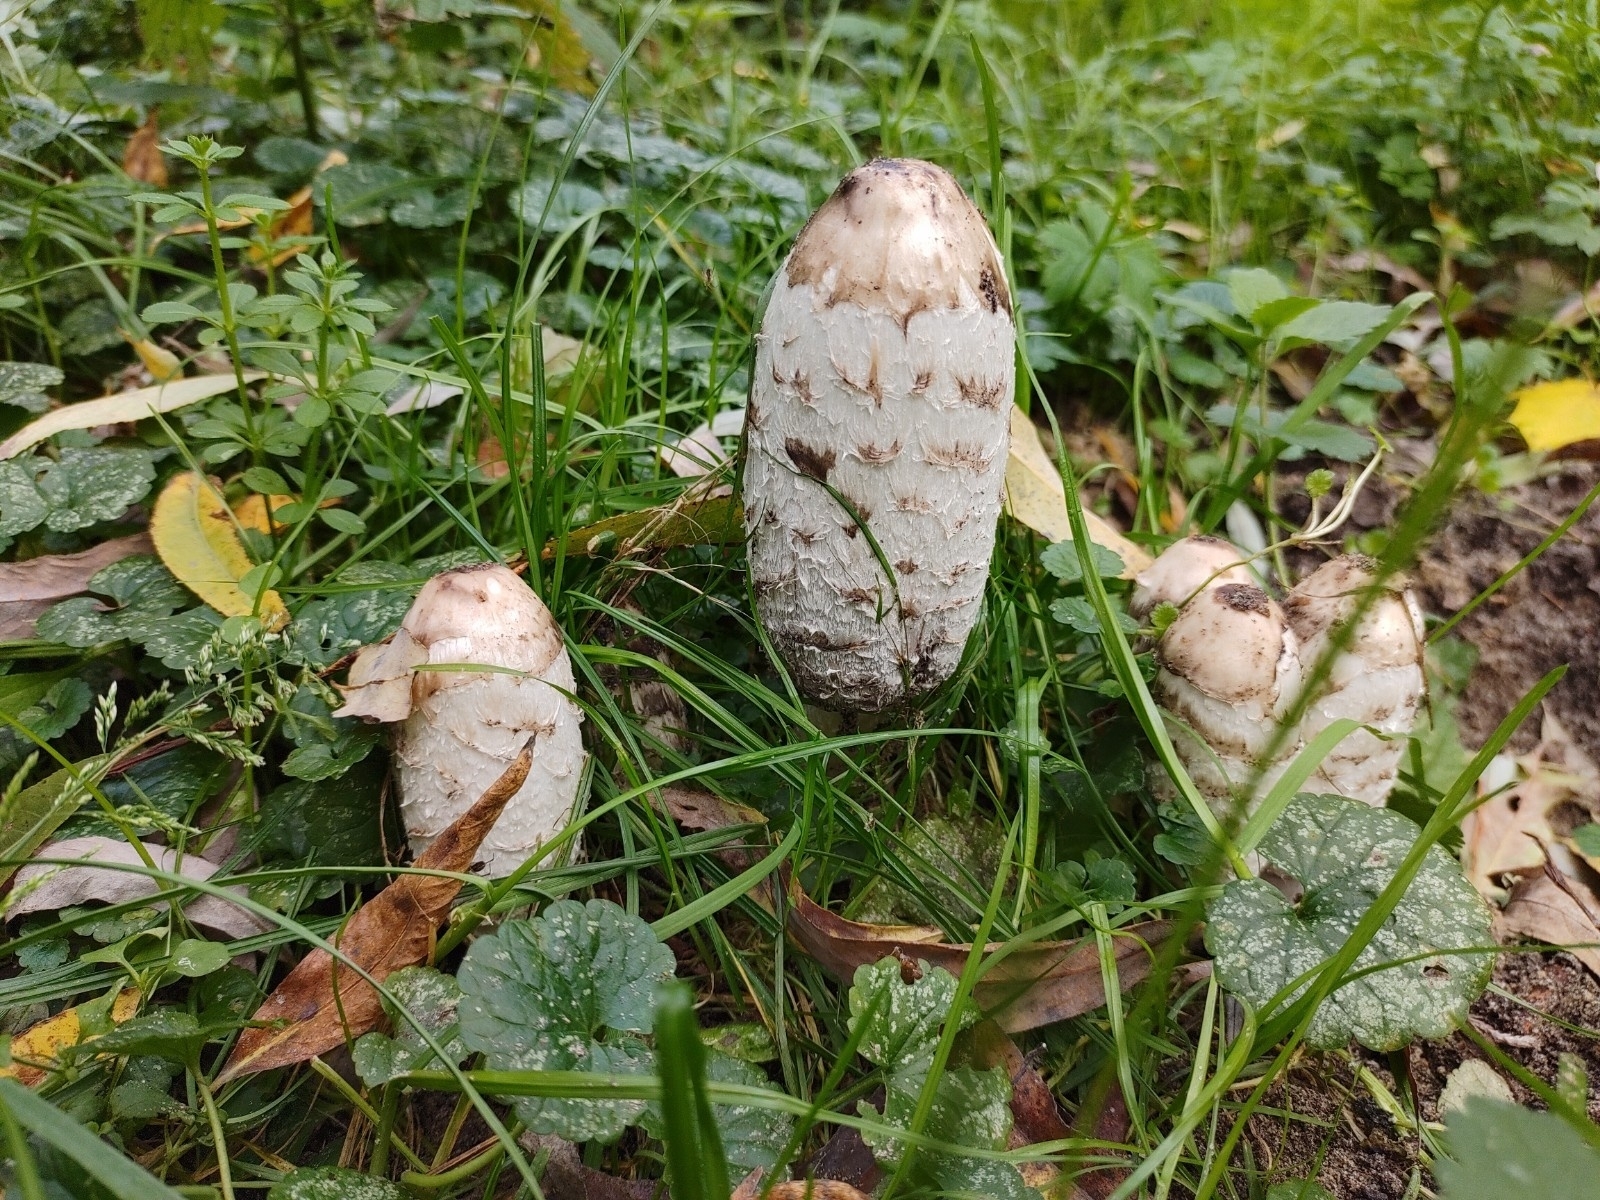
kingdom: Fungi
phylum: Basidiomycota
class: Agaricomycetes
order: Agaricales
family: Agaricaceae
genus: Coprinus
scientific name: Coprinus comatus
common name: Lawyer's wig
